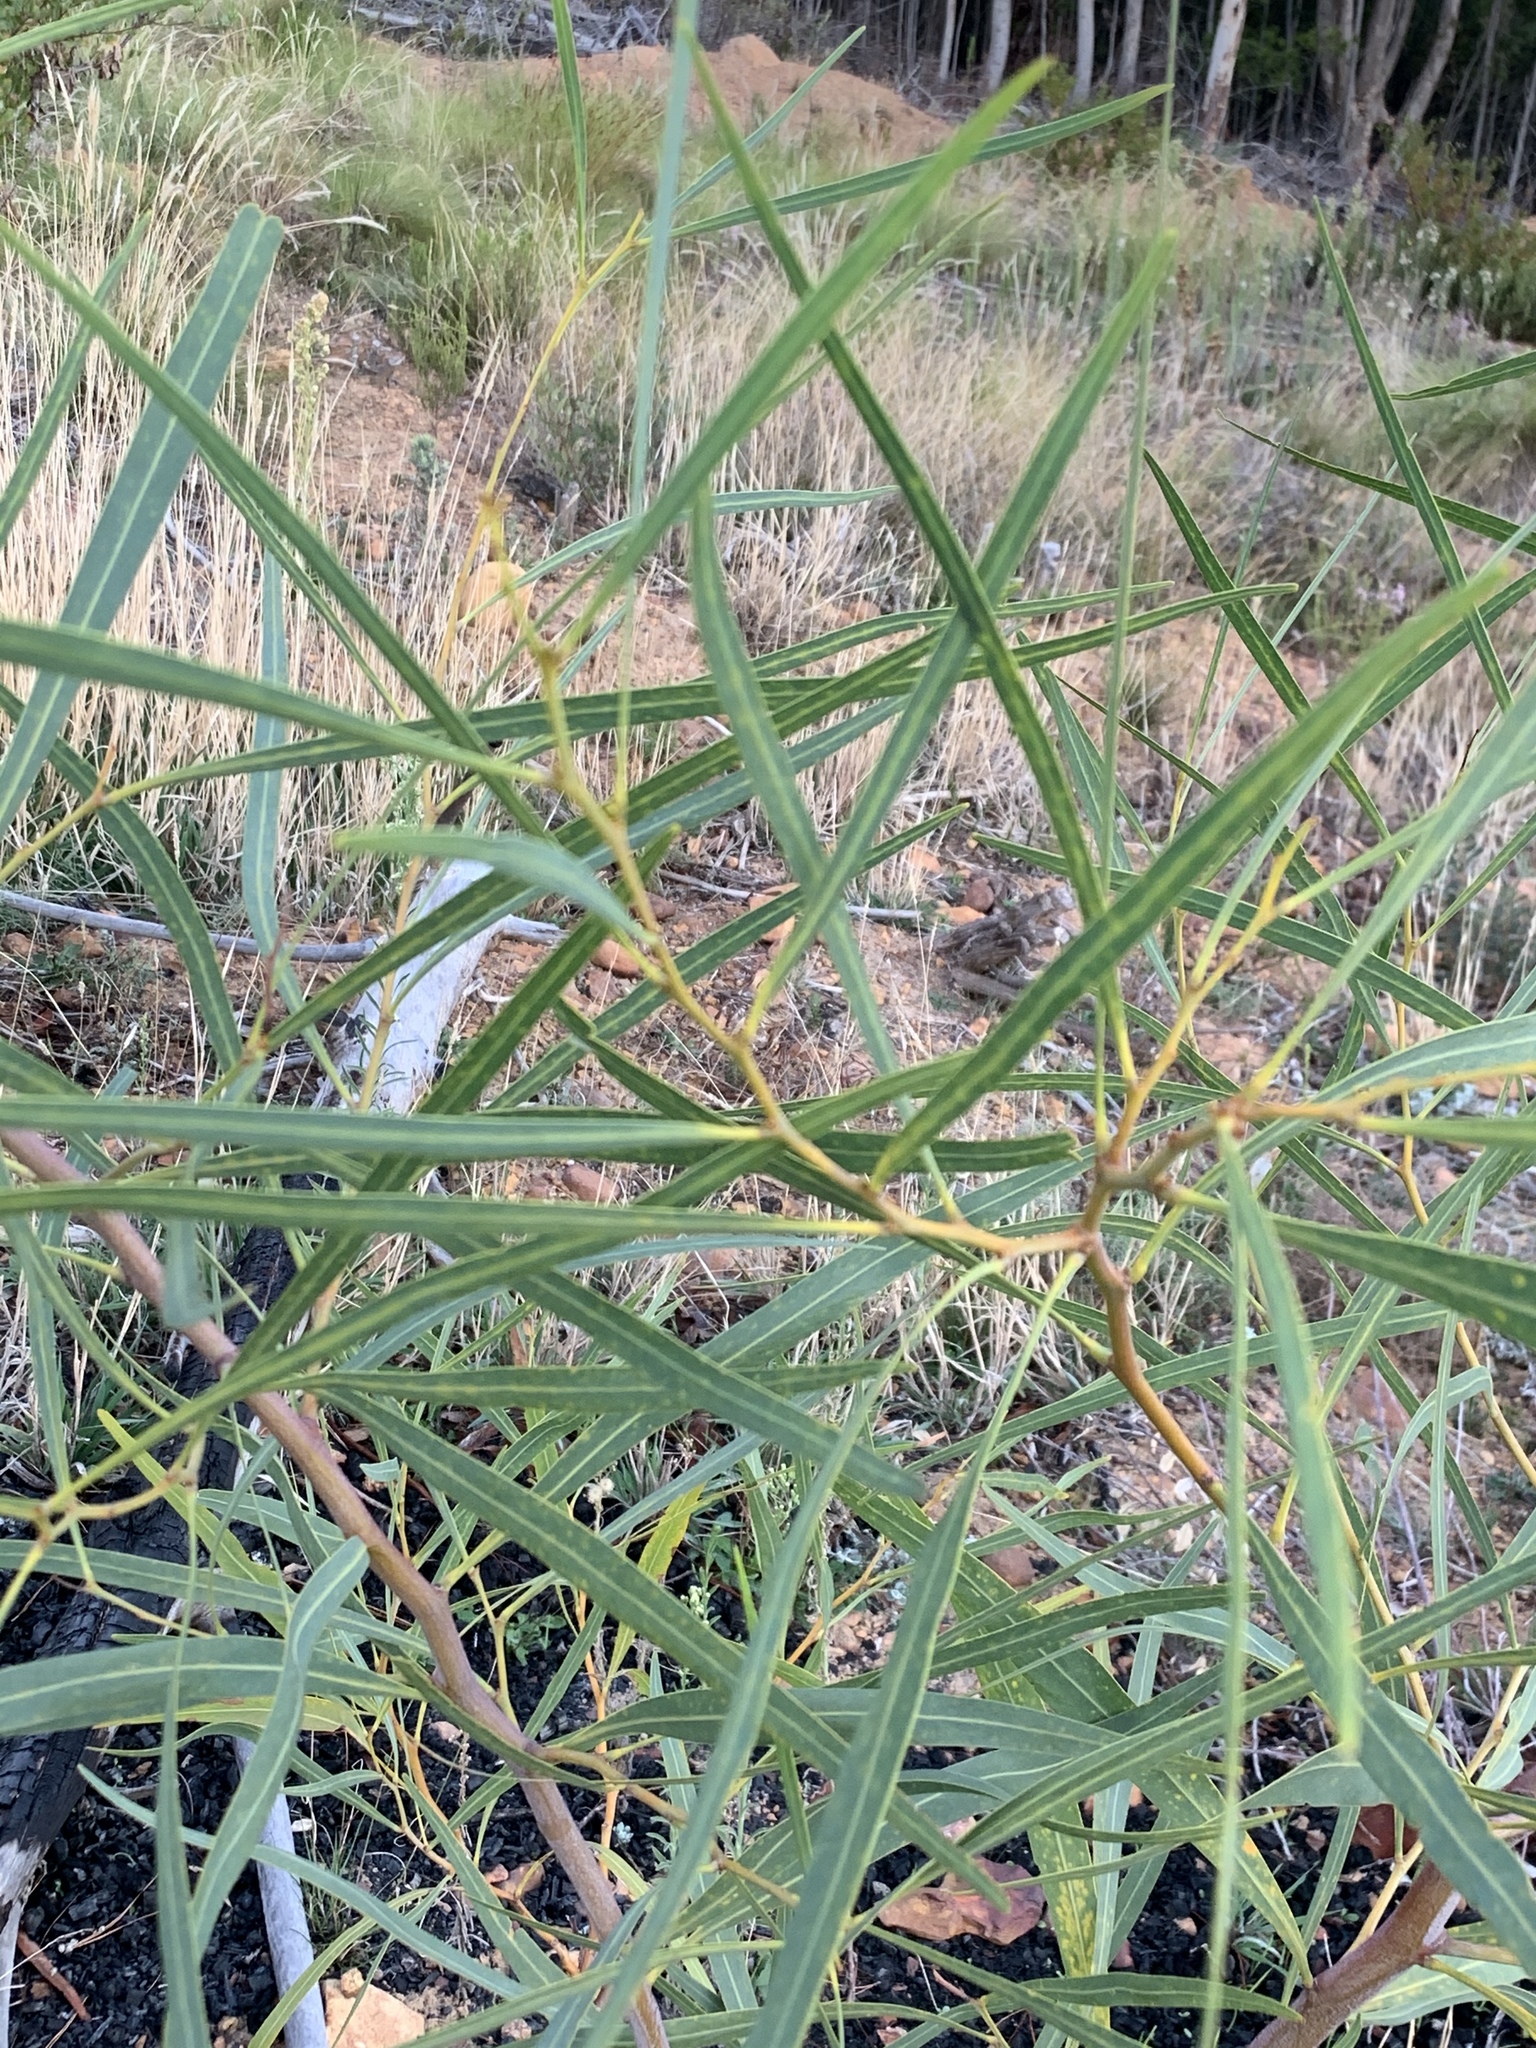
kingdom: Plantae
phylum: Tracheophyta
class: Magnoliopsida
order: Fabales
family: Fabaceae
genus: Acacia
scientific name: Acacia saligna
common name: Orange wattle
